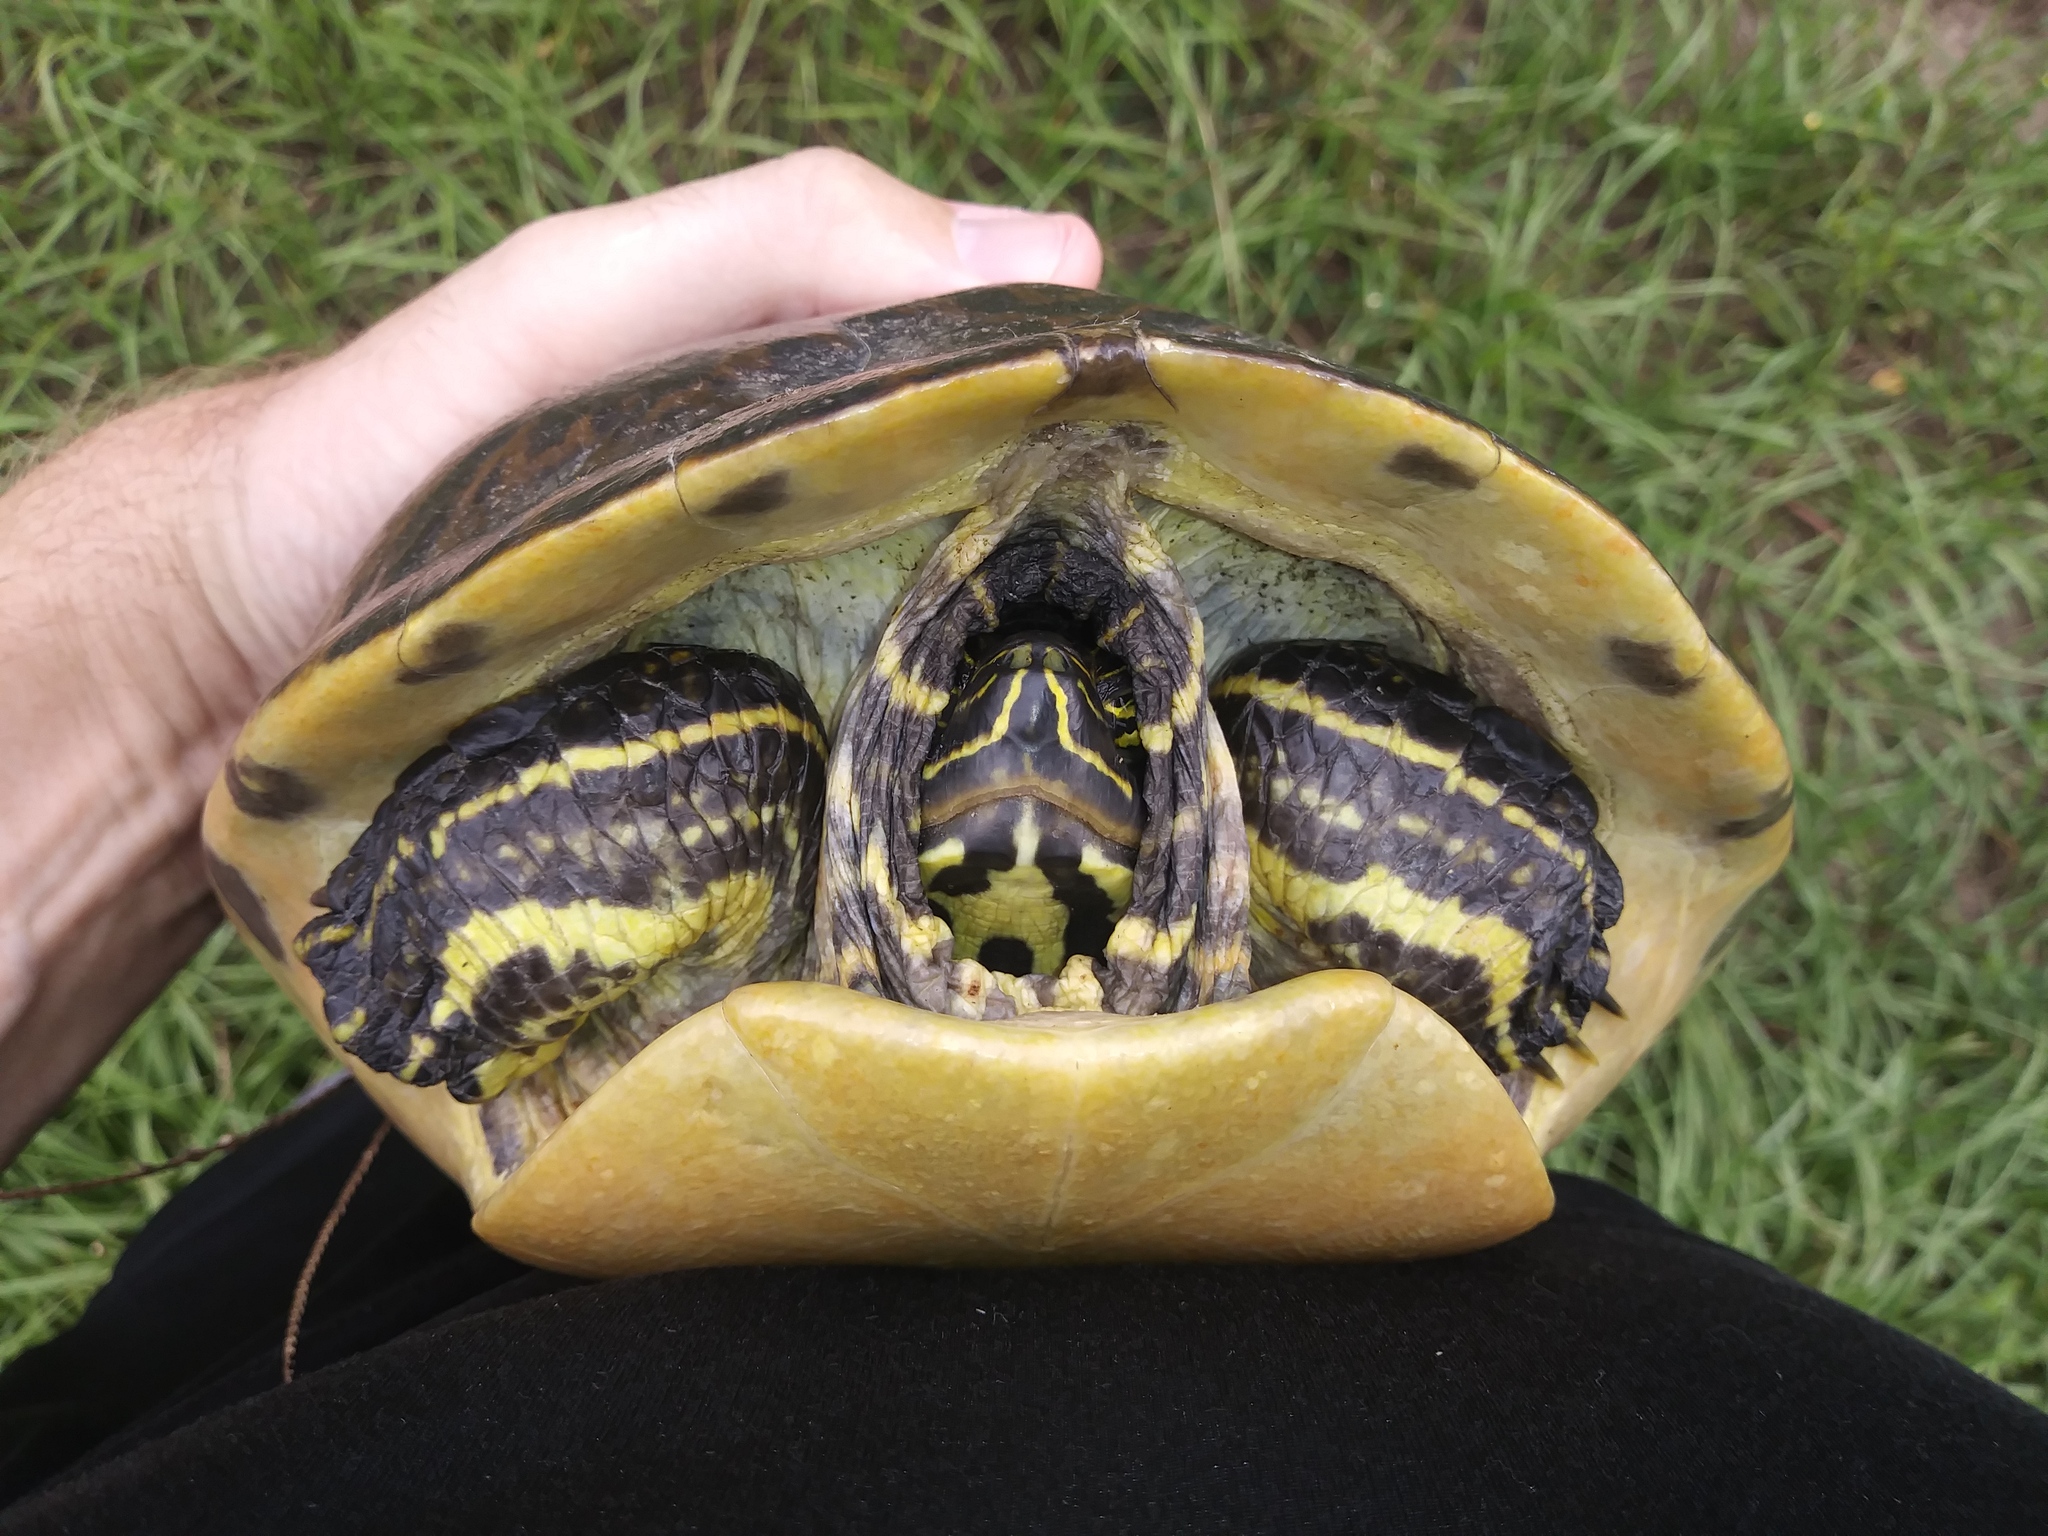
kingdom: Animalia
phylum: Chordata
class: Testudines
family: Emydidae
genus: Pseudemys
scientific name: Pseudemys peninsularis
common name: Peninsula cooter
